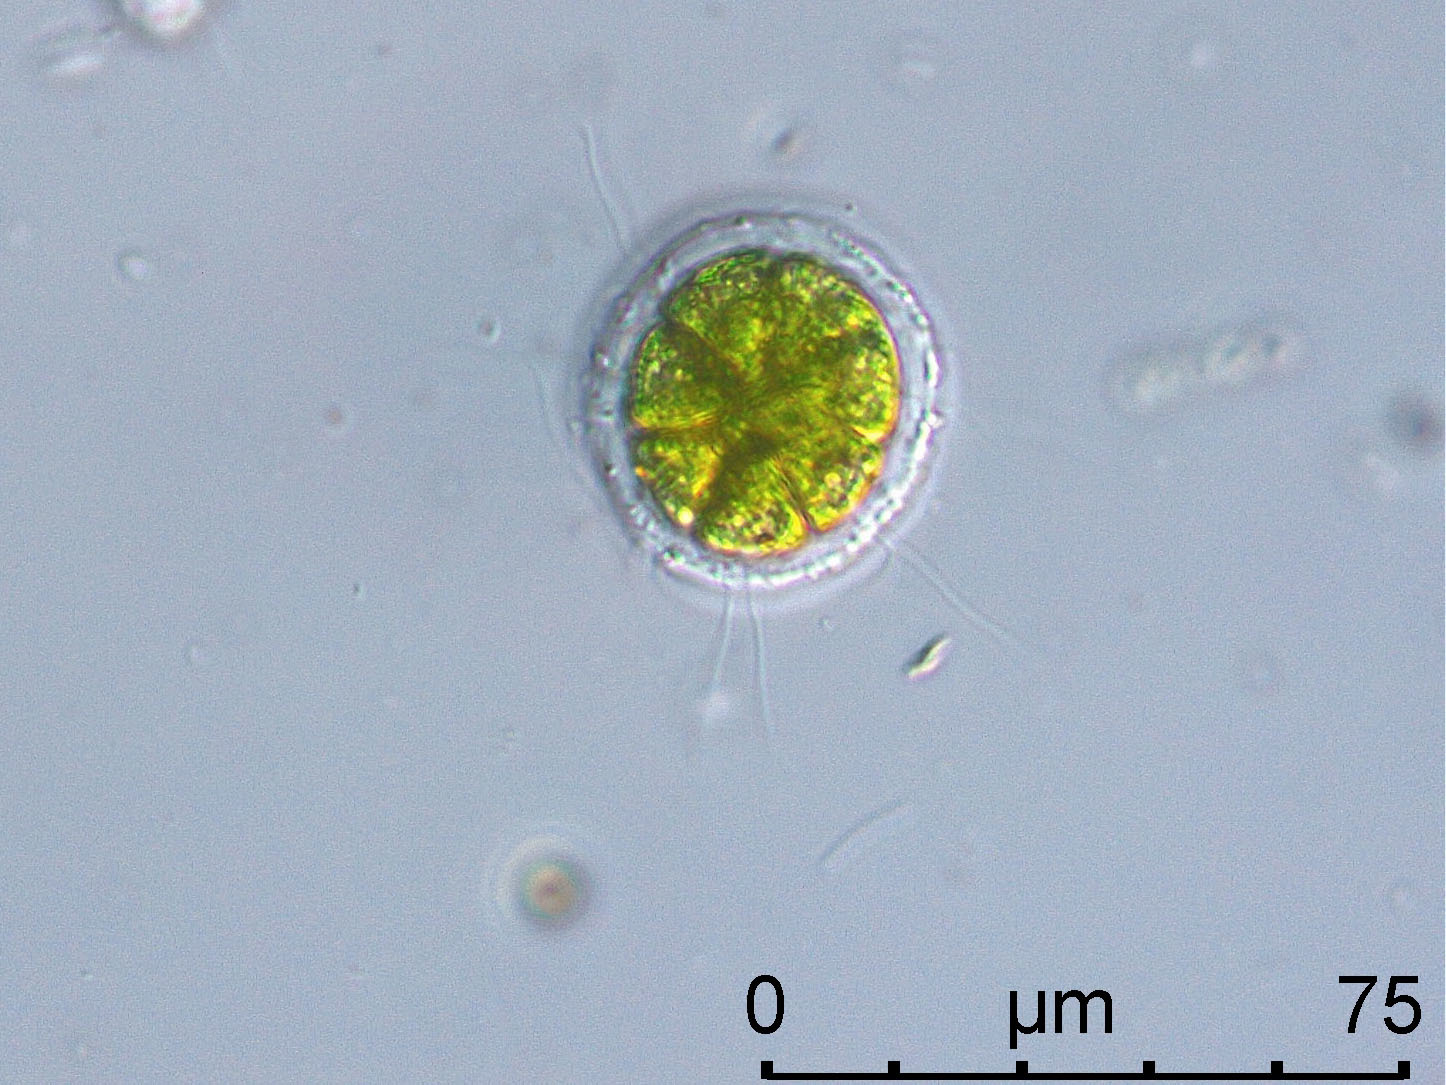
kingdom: Plantae
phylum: Chlorophyta
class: Chlorophyceae
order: Volvocales
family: Volvocaceae
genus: Pandorina
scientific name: Pandorina morum
